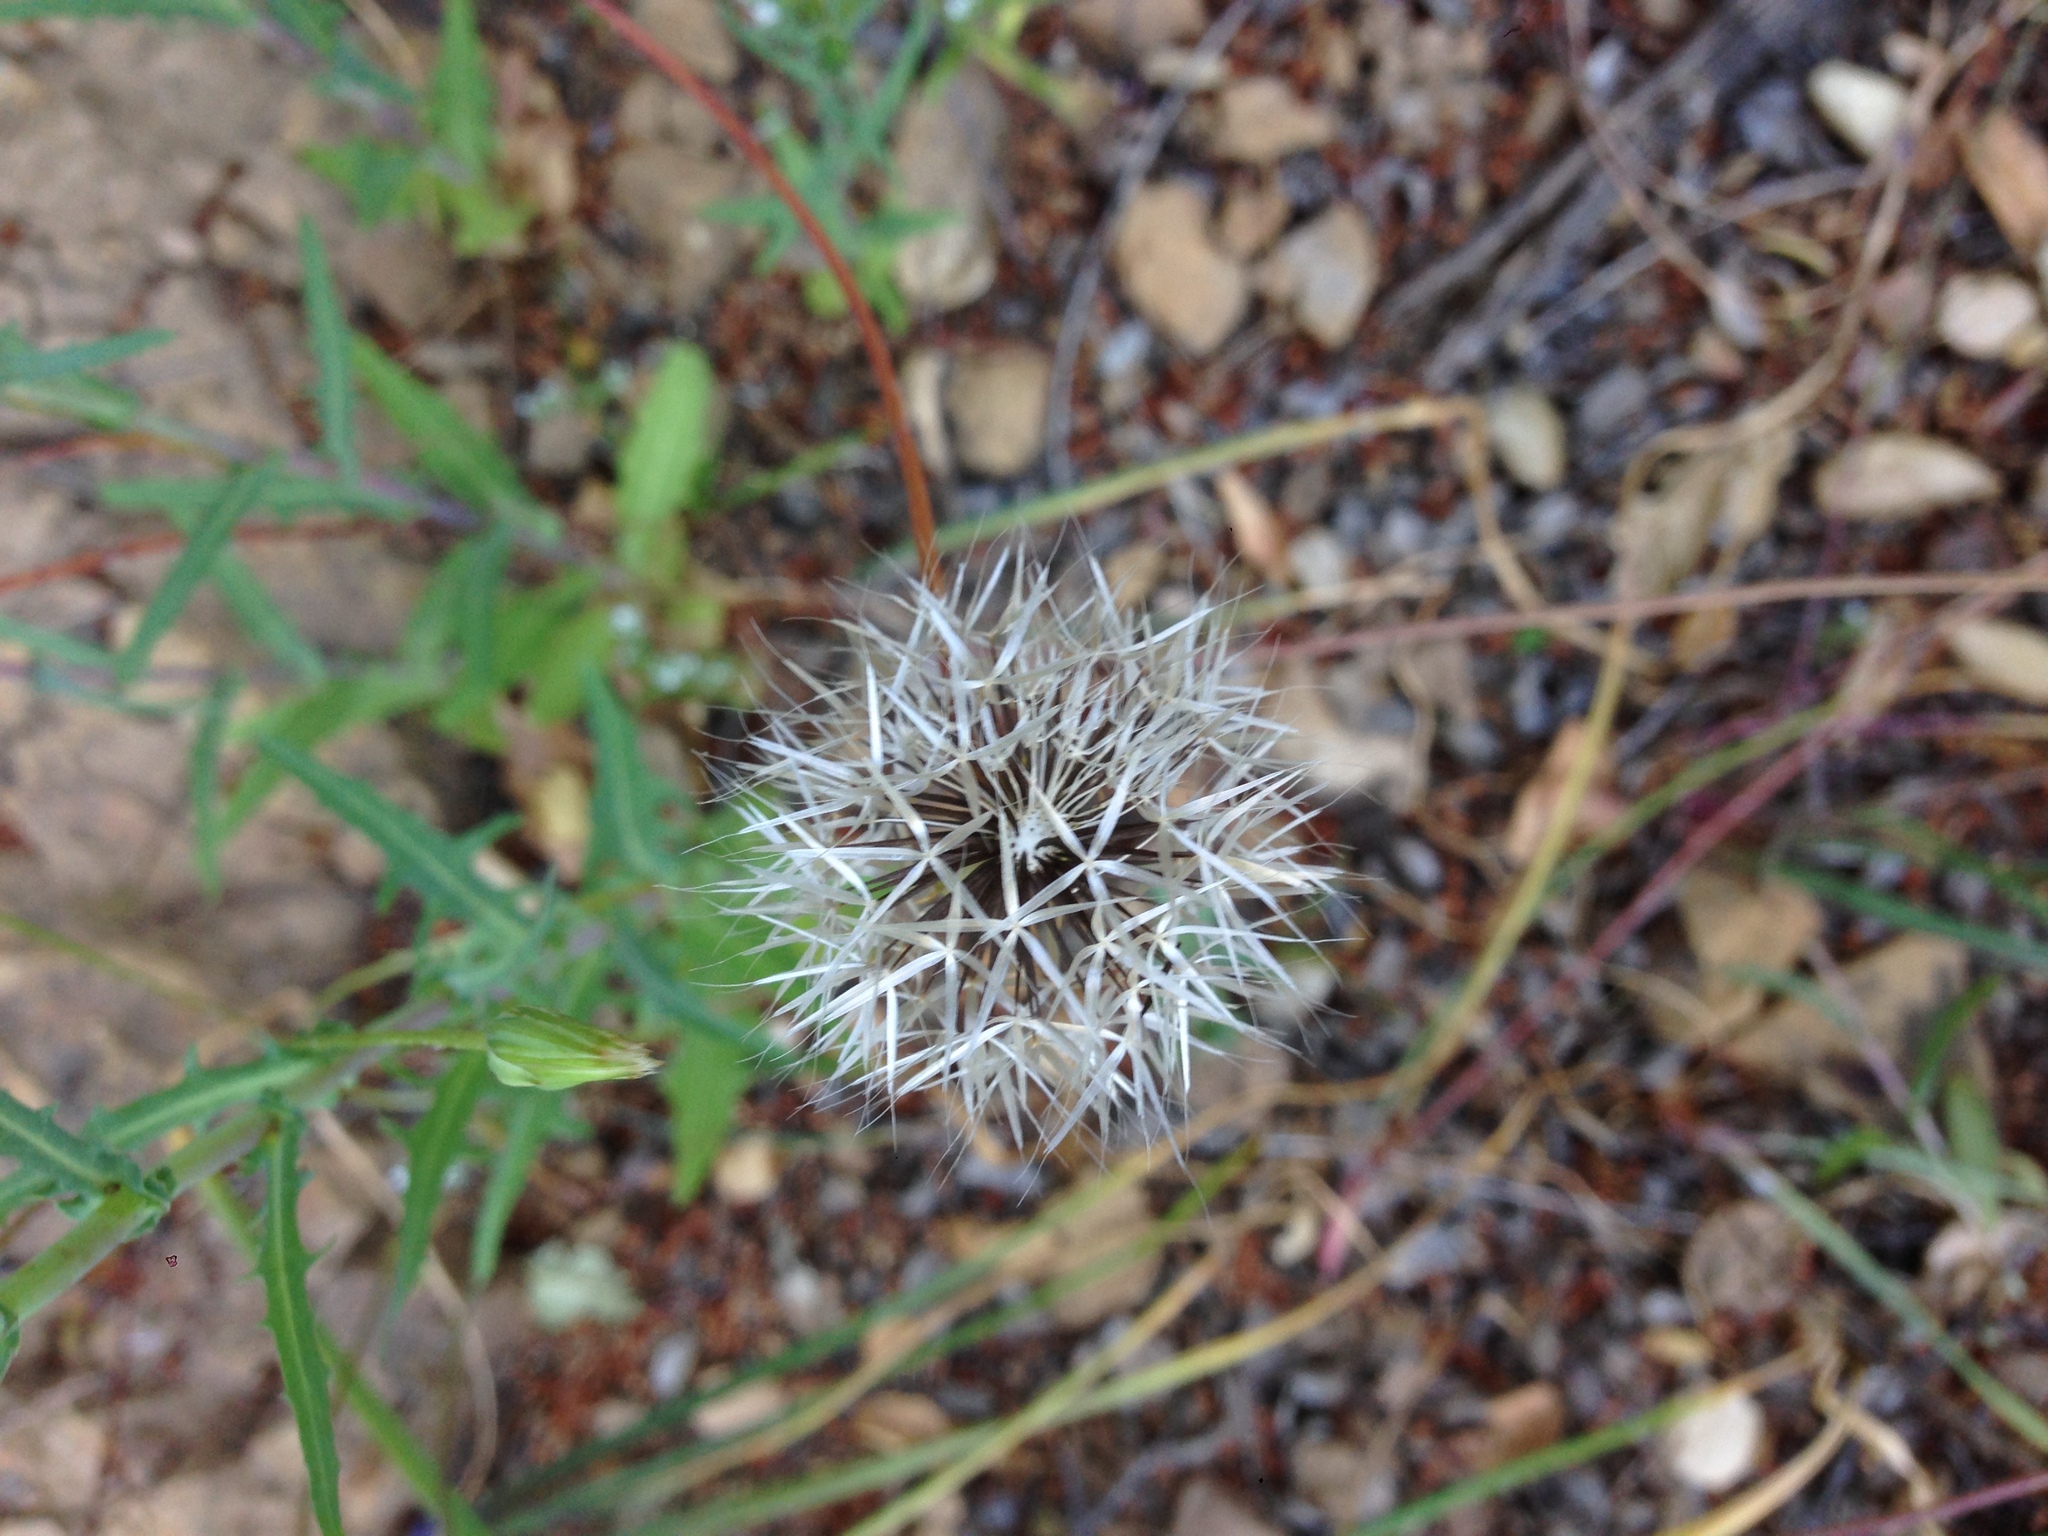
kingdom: Plantae
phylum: Tracheophyta
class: Magnoliopsida
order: Asterales
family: Asteraceae
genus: Microseris
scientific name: Microseris lindleyi
